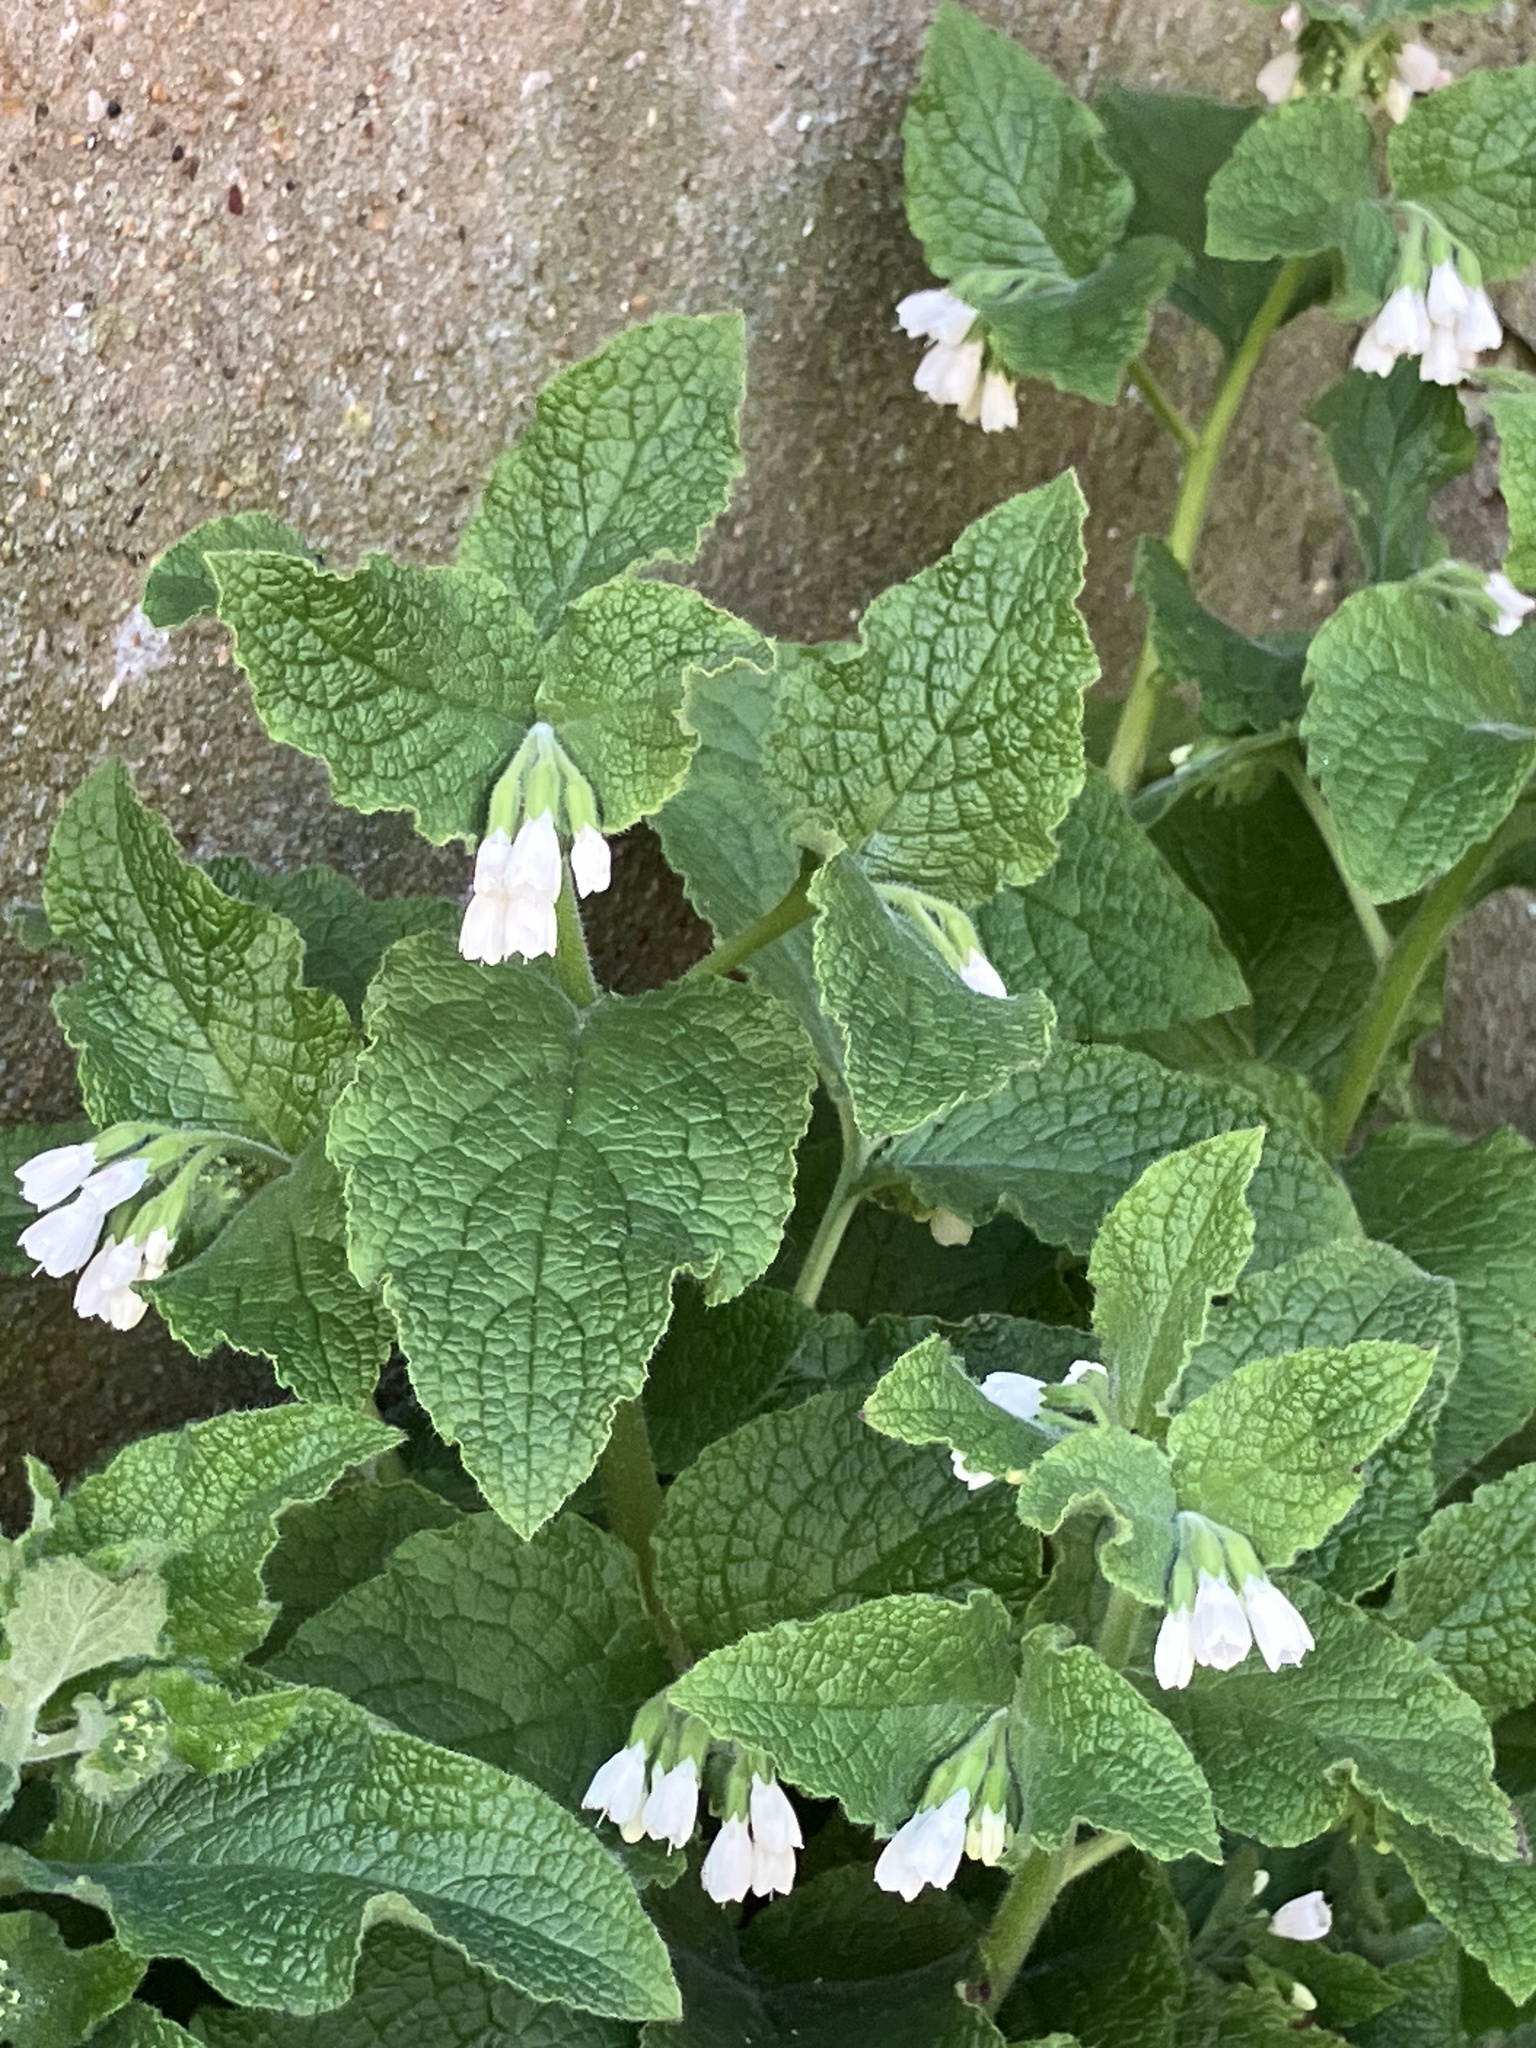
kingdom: Plantae
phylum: Tracheophyta
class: Magnoliopsida
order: Boraginales
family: Boraginaceae
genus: Symphytum
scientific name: Symphytum orientale
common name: White comfrey
